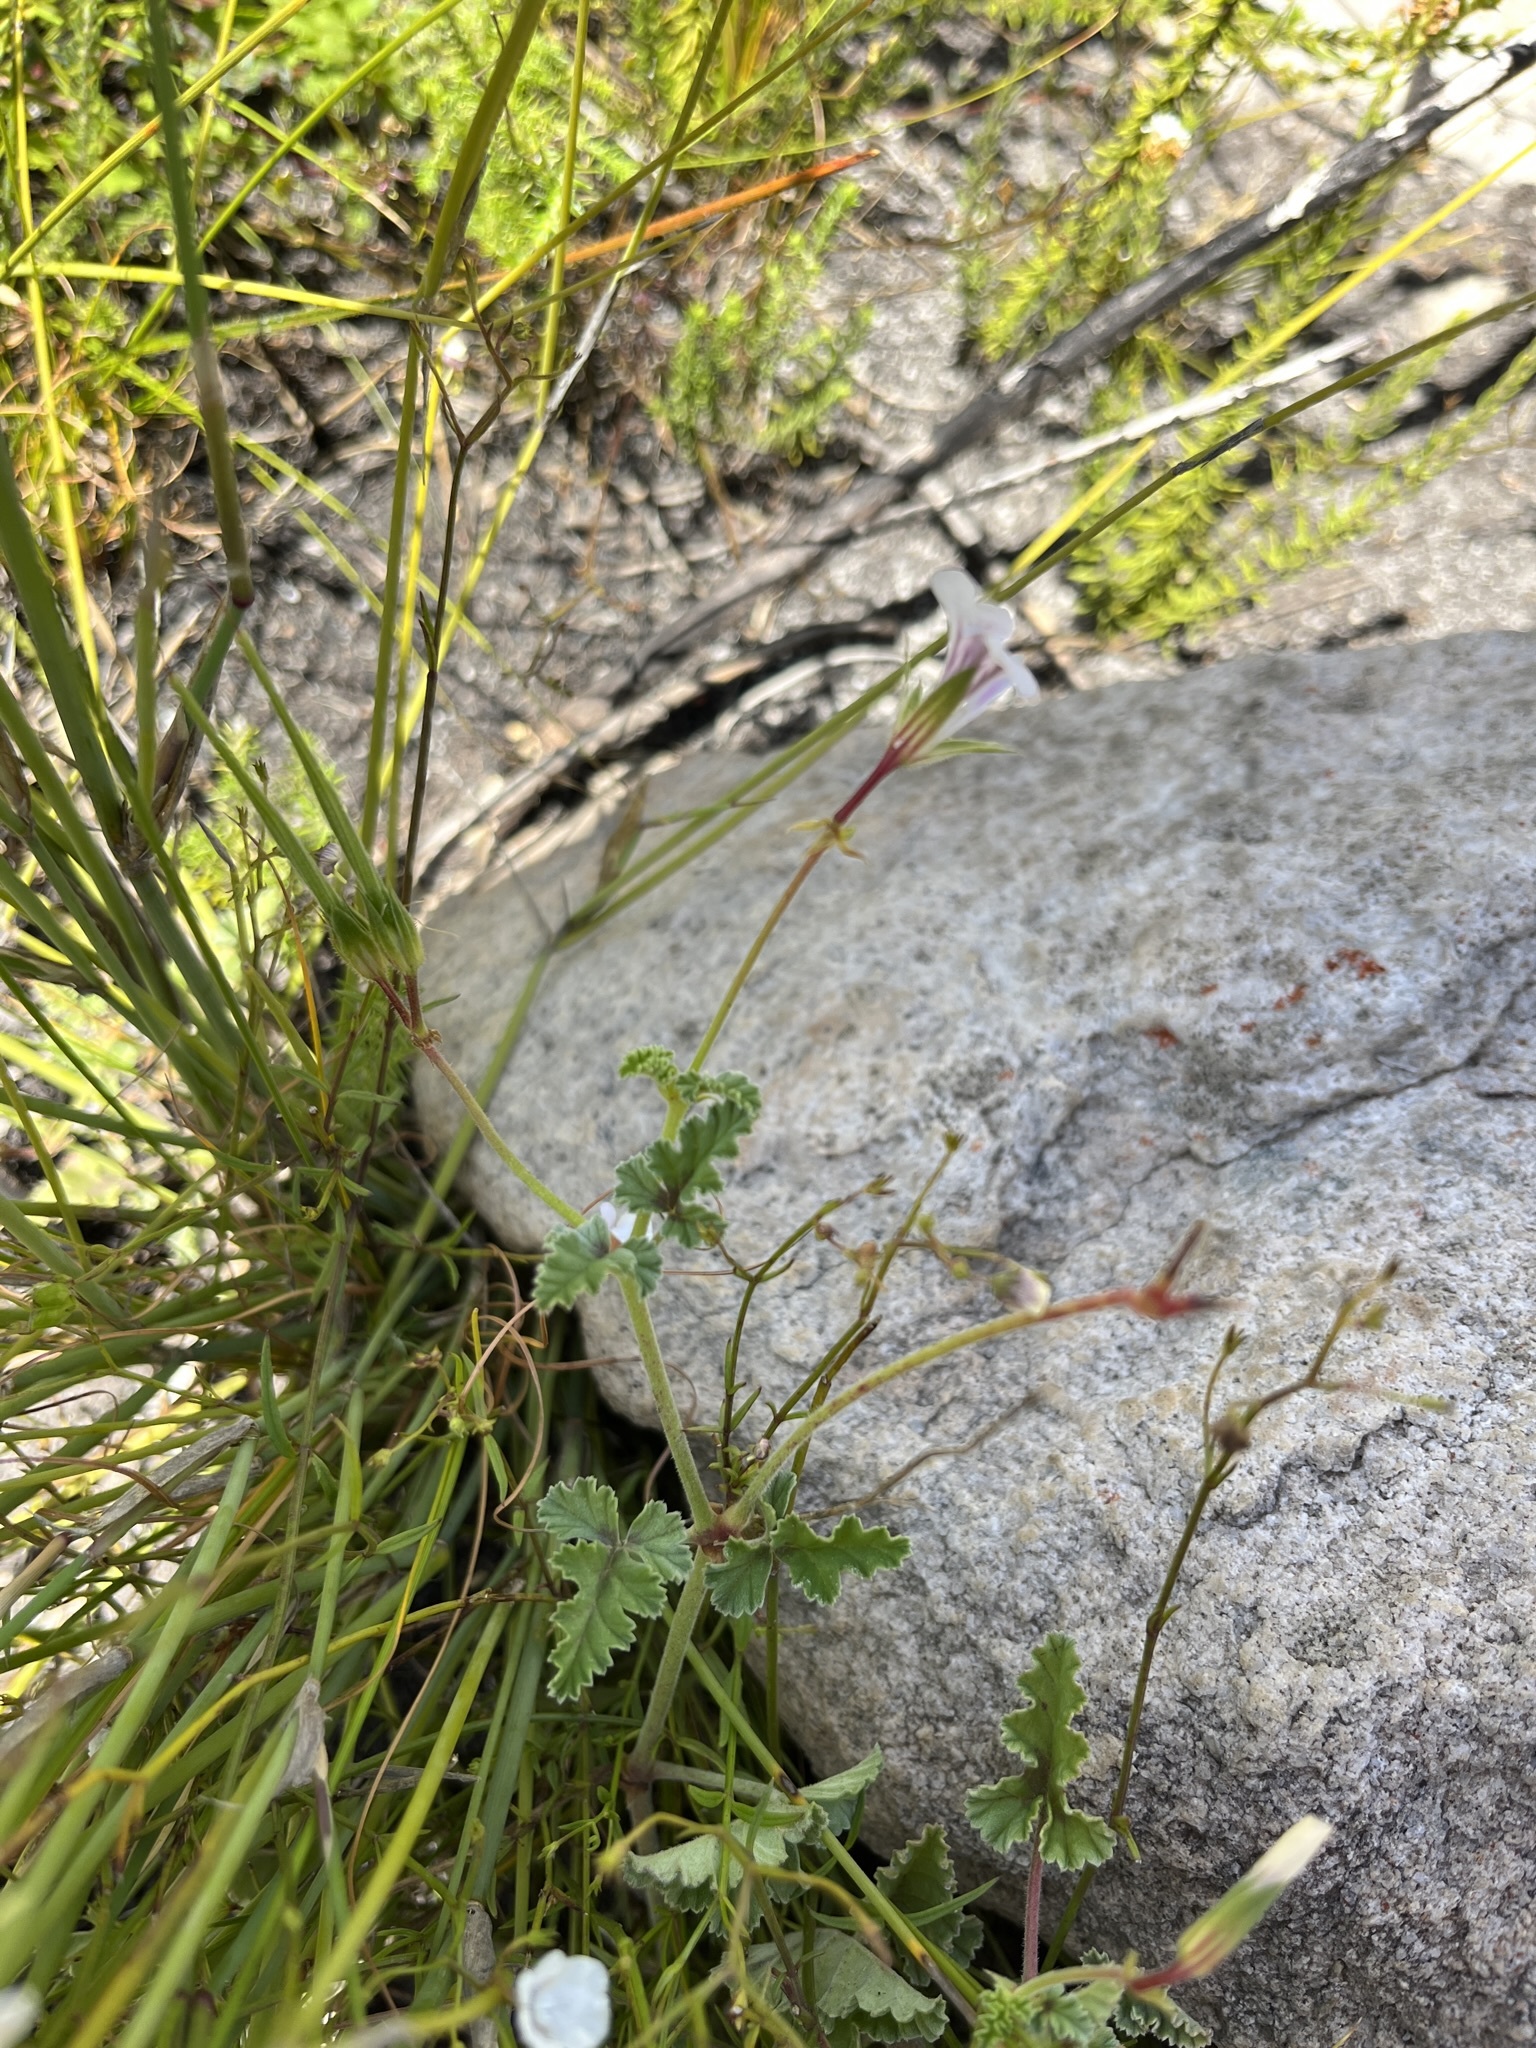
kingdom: Plantae
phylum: Tracheophyta
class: Magnoliopsida
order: Geraniales
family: Geraniaceae
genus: Pelargonium
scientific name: Pelargonium candicans
